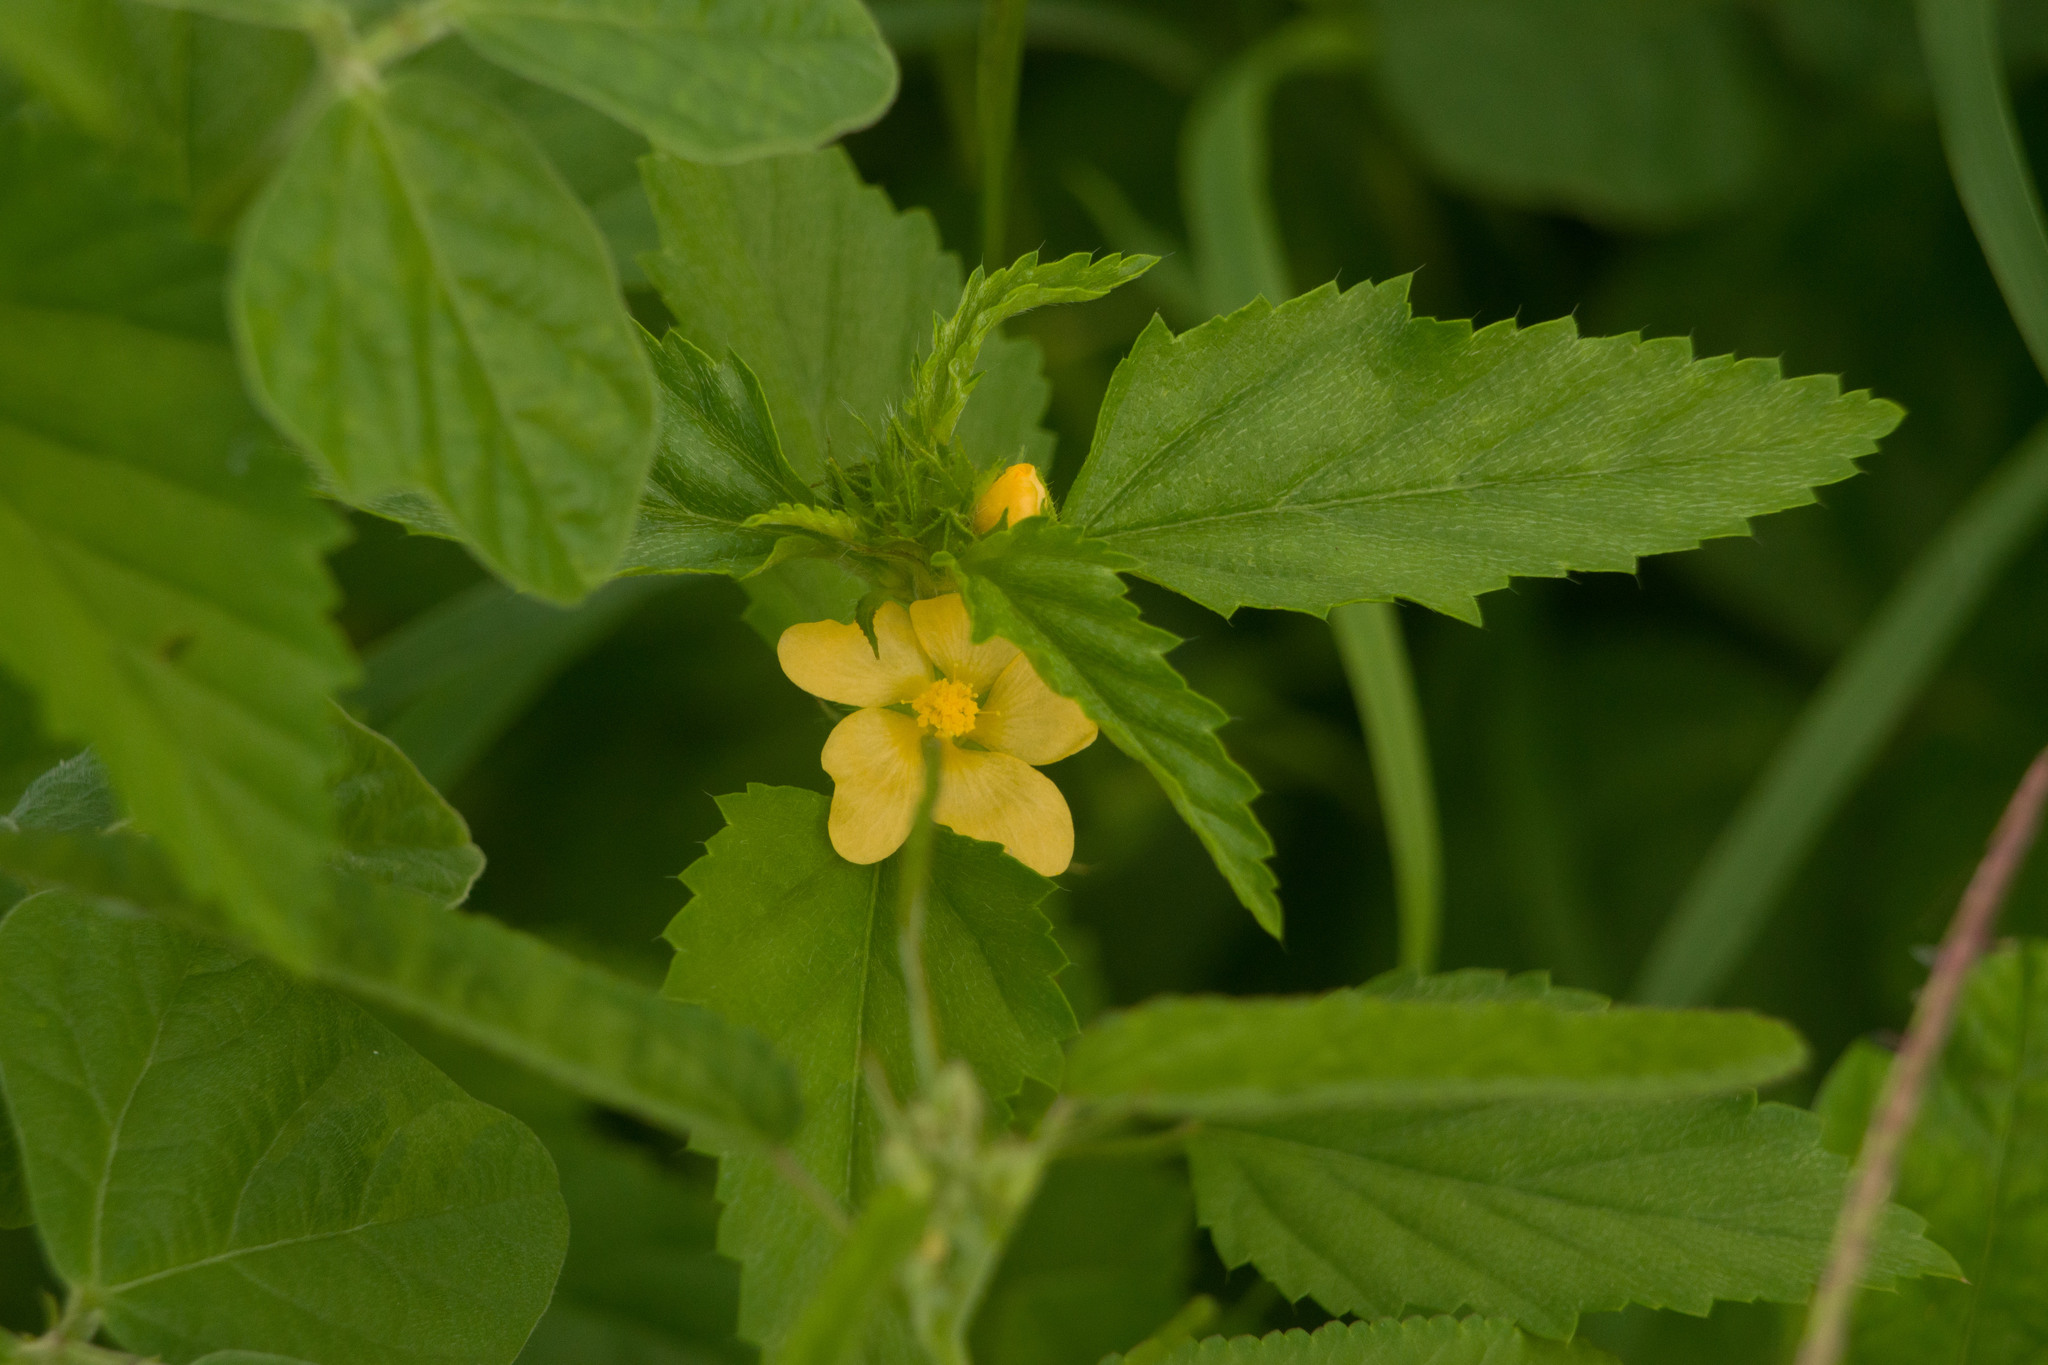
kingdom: Plantae
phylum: Tracheophyta
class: Magnoliopsida
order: Malvales
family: Malvaceae
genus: Malvastrum
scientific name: Malvastrum coromandelianum
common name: Threelobe false mallow
